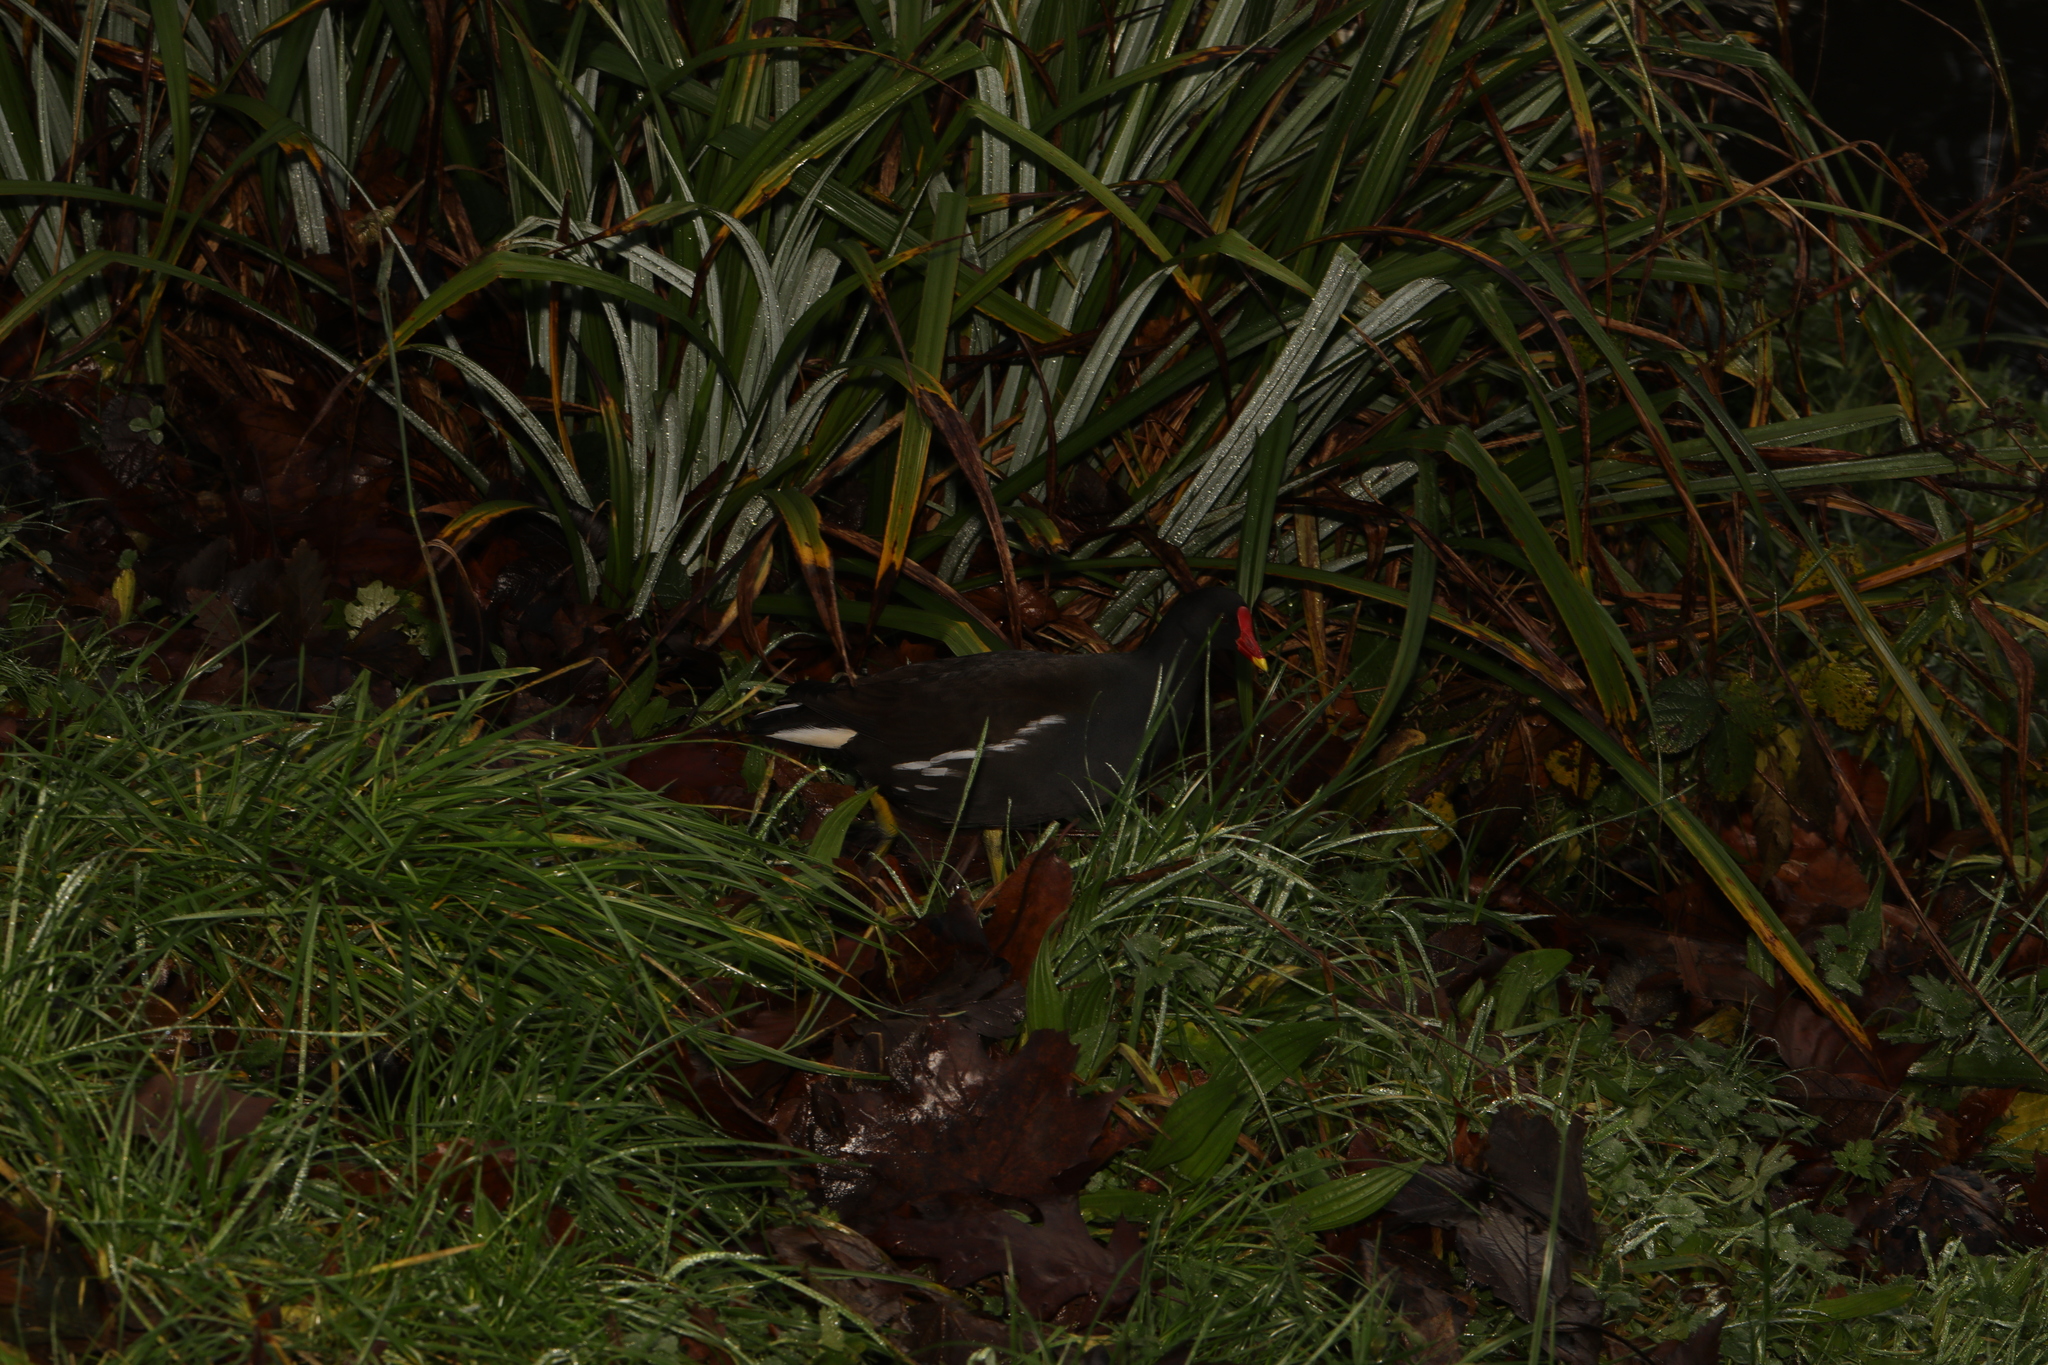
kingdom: Animalia
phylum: Chordata
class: Aves
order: Gruiformes
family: Rallidae
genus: Gallinula
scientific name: Gallinula chloropus
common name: Common moorhen
